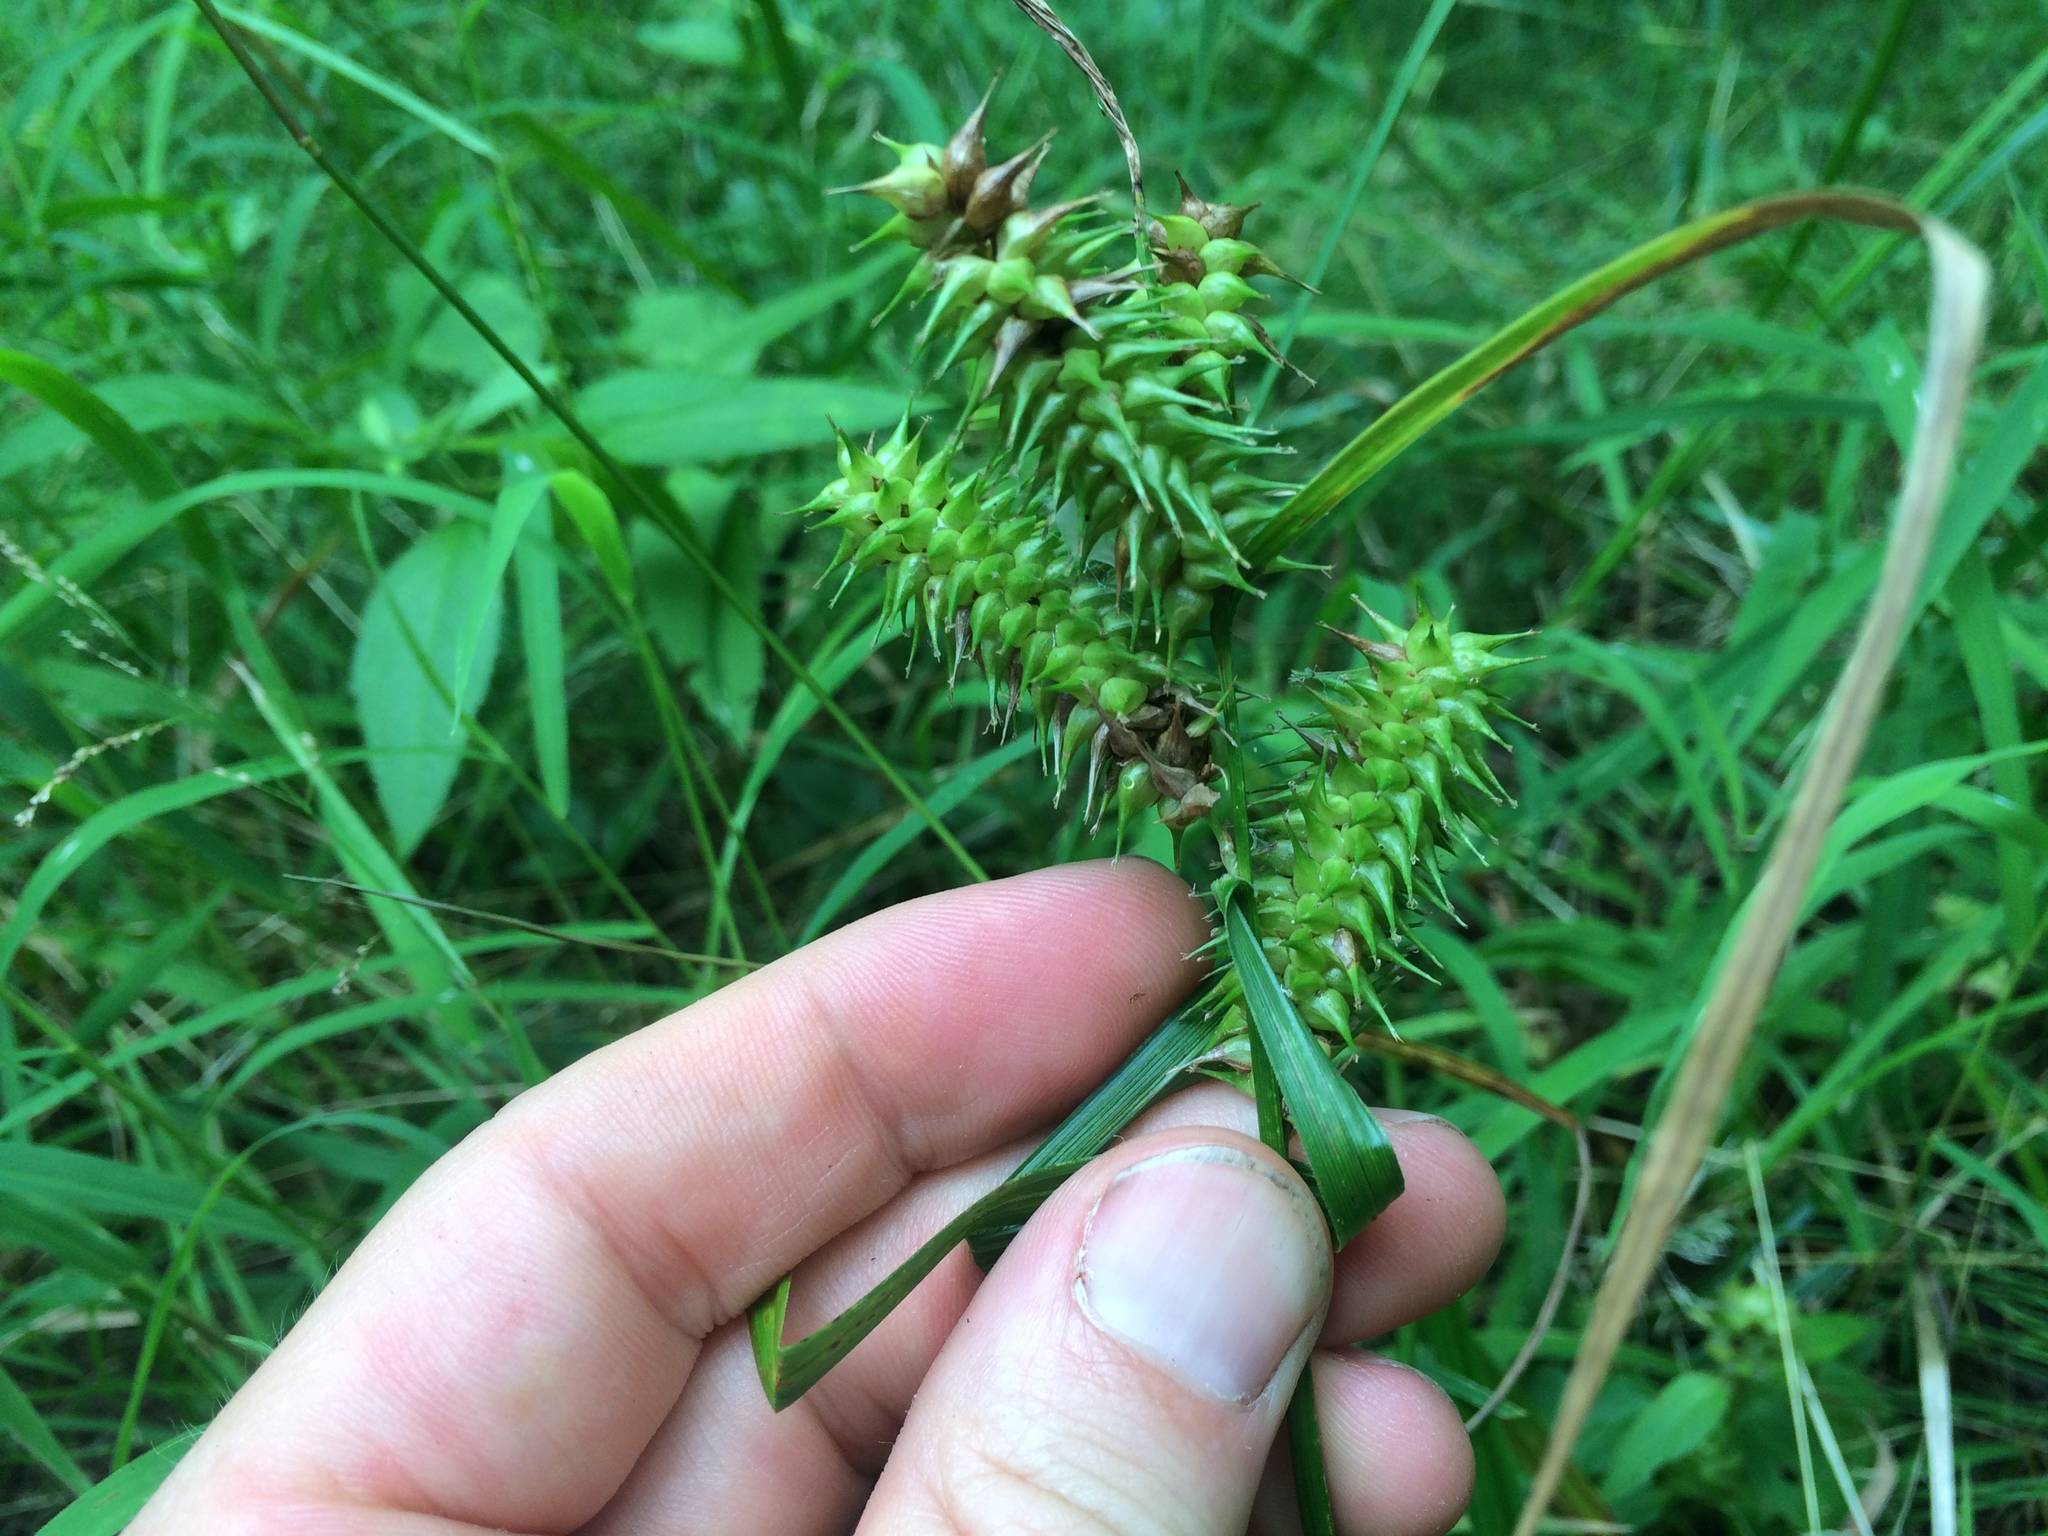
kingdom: Plantae
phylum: Tracheophyta
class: Liliopsida
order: Poales
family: Cyperaceae
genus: Carex
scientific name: Carex retrorsa
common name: Knot-sheath sedge
